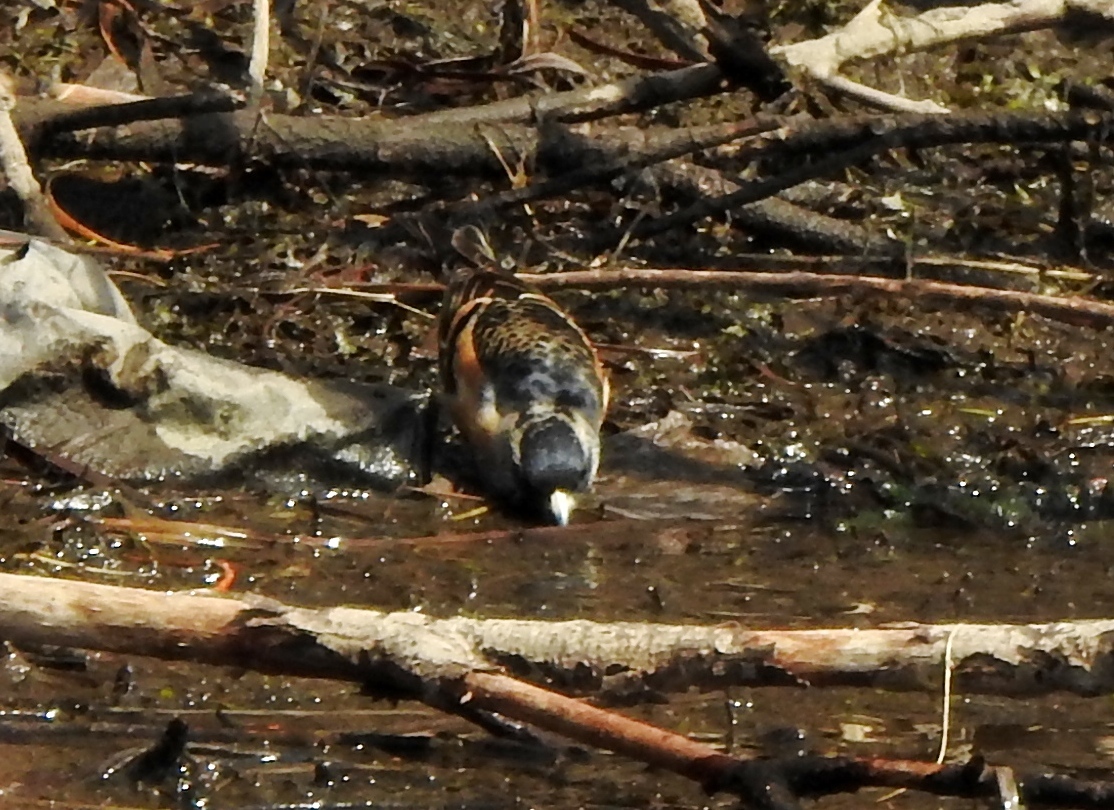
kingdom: Animalia
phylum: Chordata
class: Aves
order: Passeriformes
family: Fringillidae
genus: Fringilla
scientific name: Fringilla montifringilla
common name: Brambling
